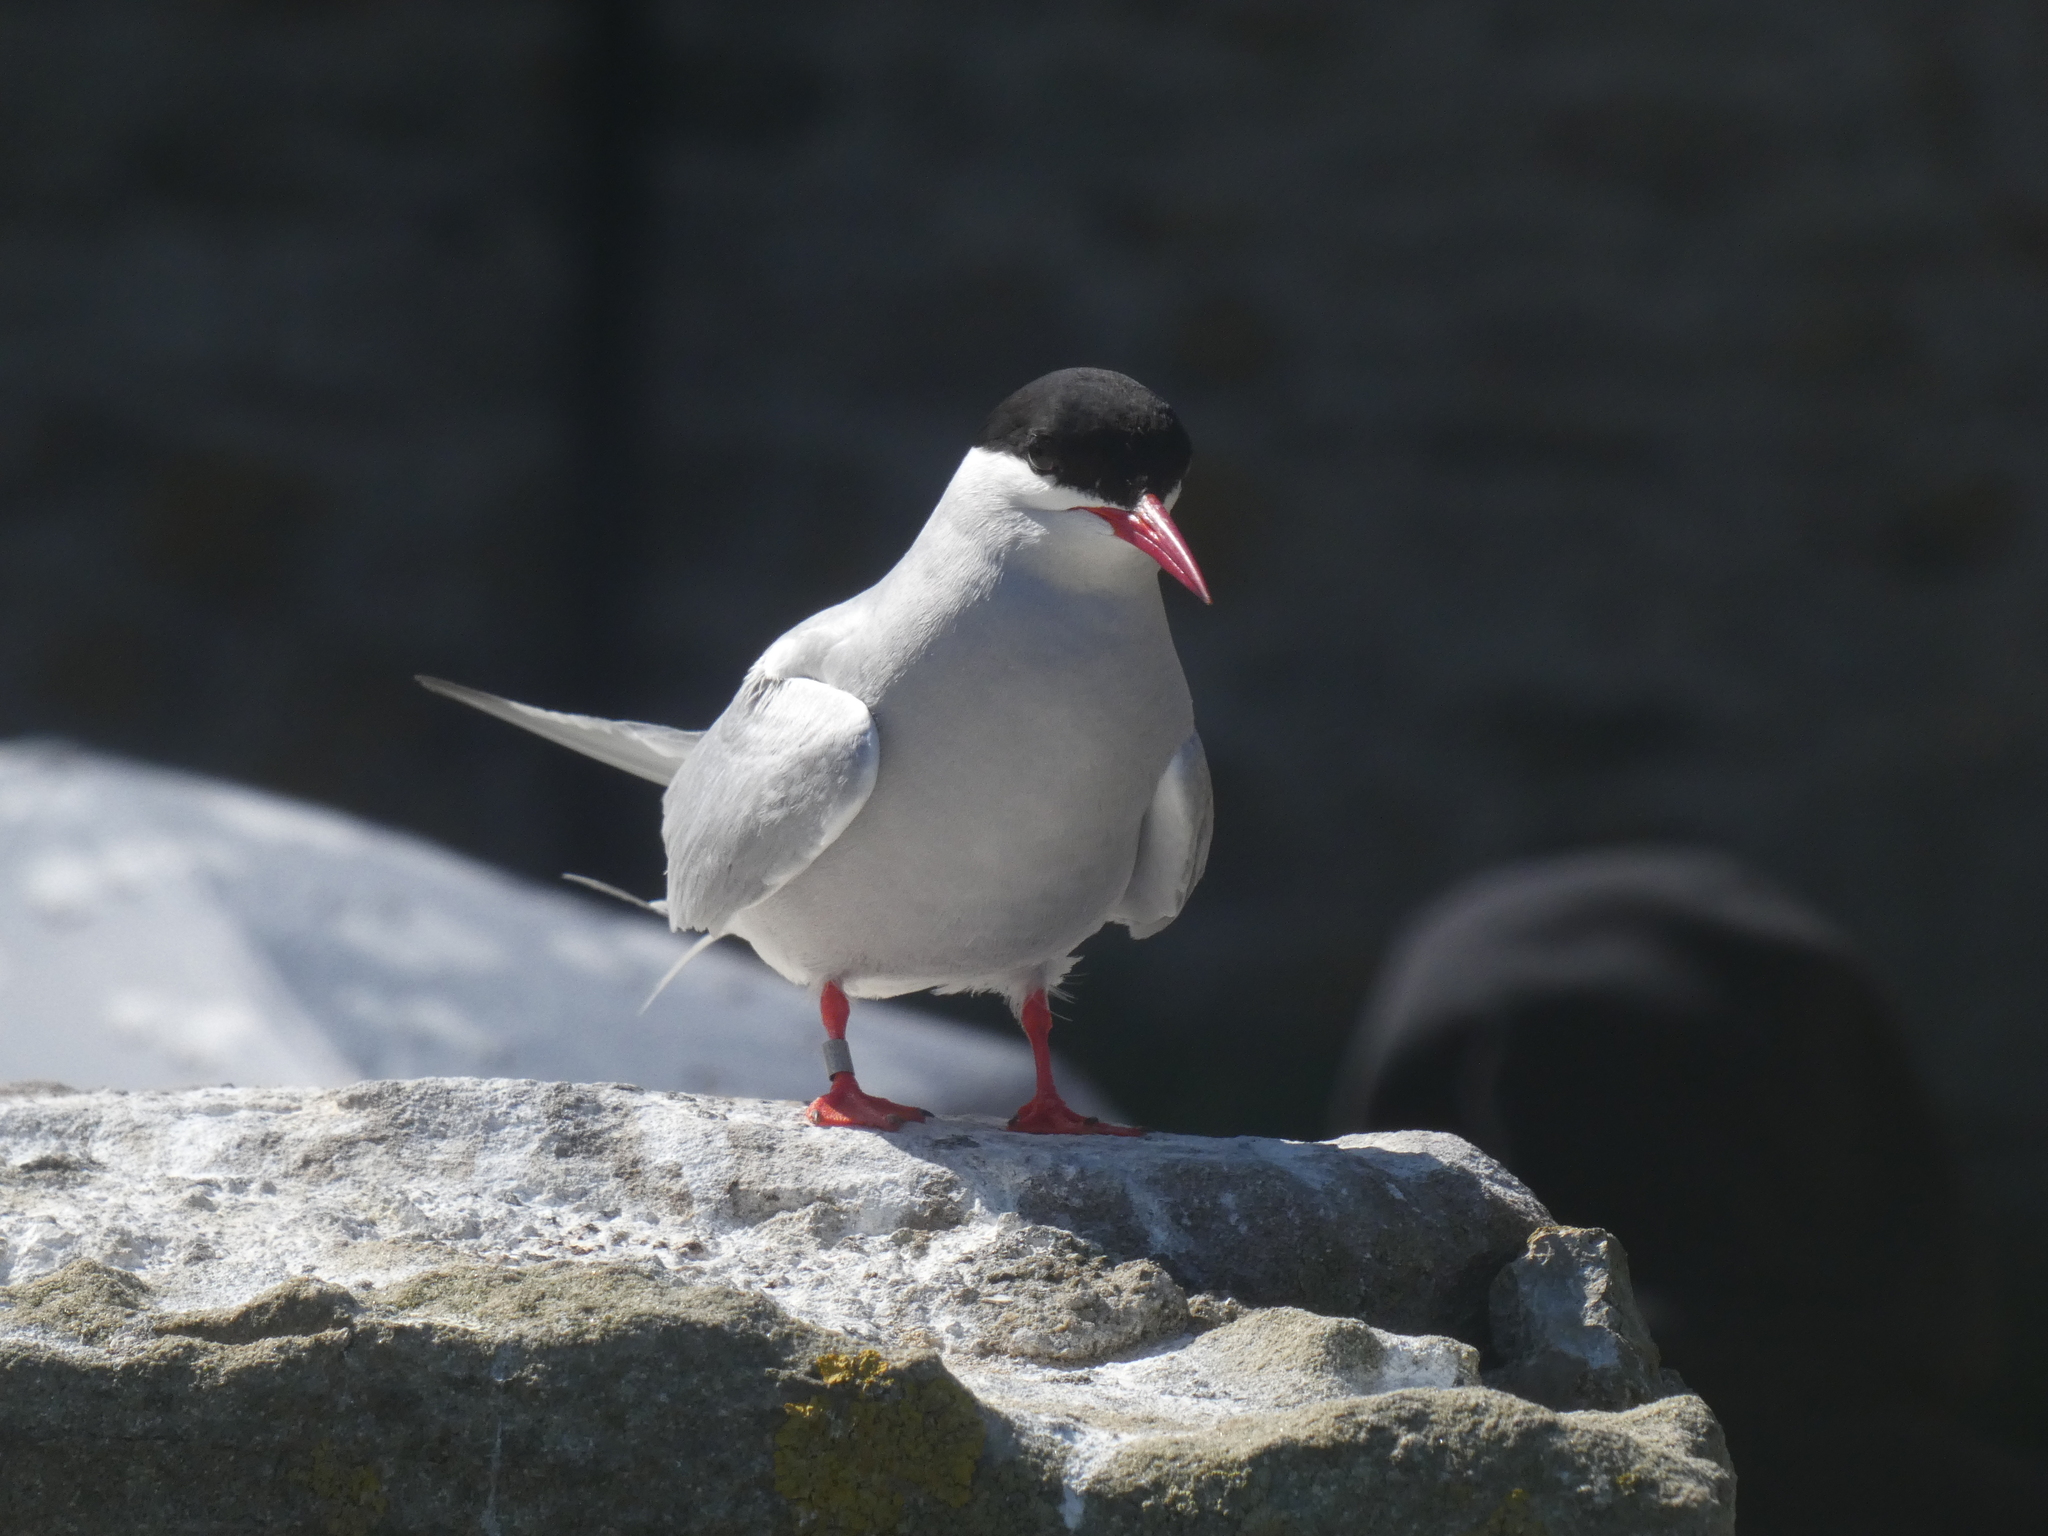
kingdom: Animalia
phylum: Chordata
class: Aves
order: Charadriiformes
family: Laridae
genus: Sterna
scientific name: Sterna paradisaea
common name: Arctic tern
